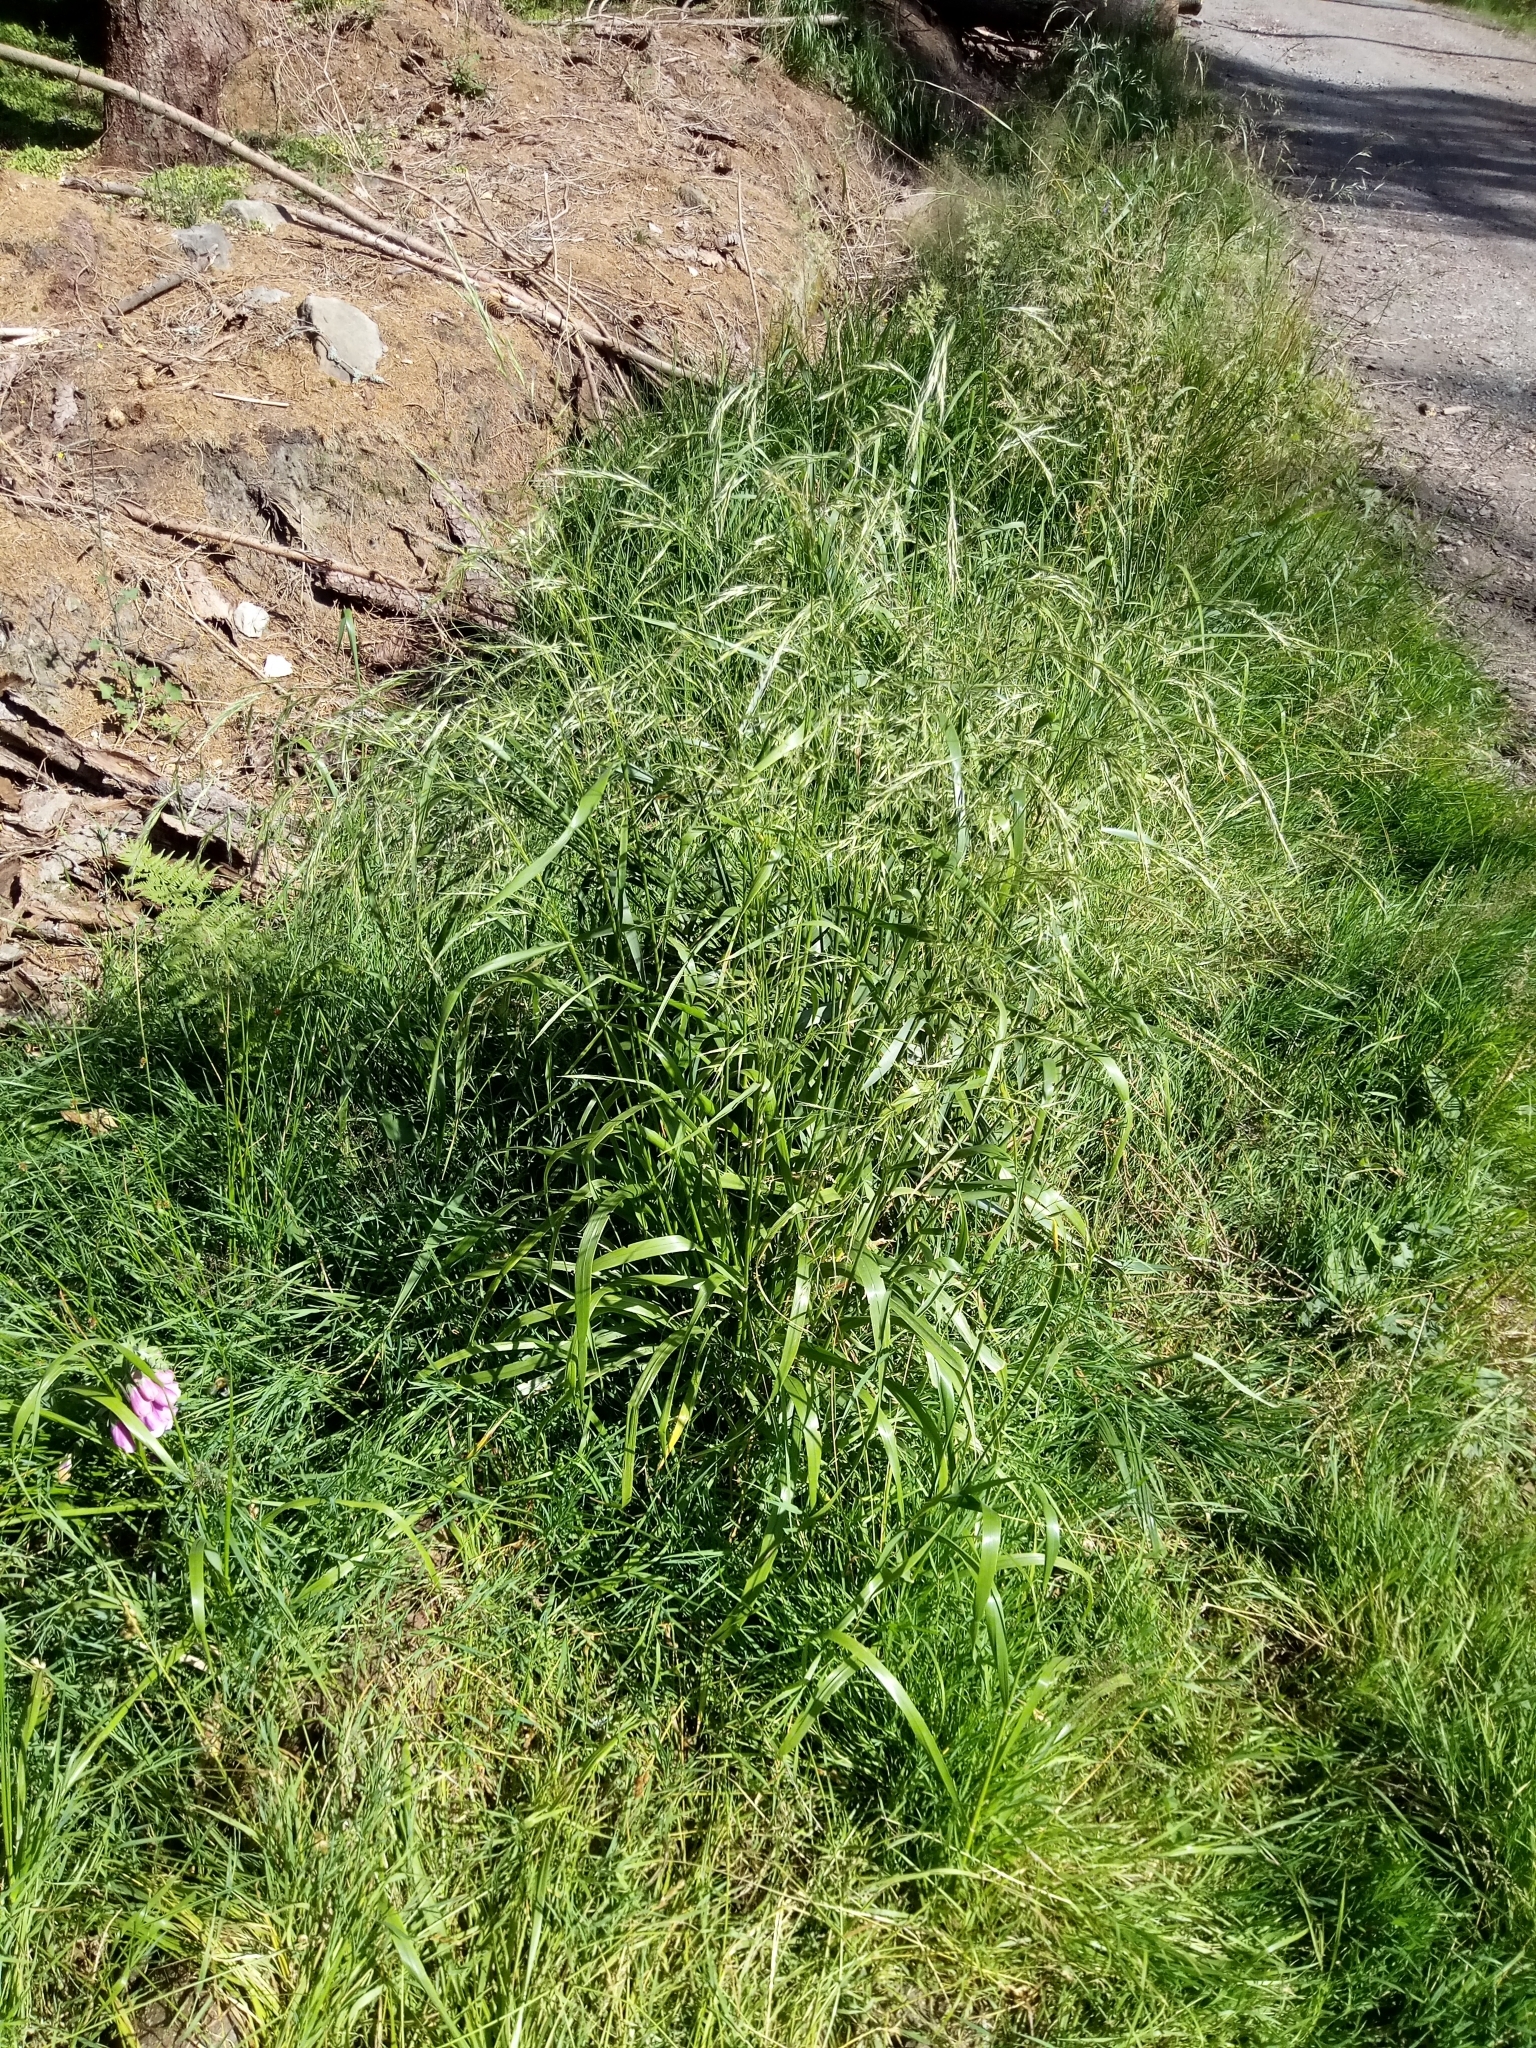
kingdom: Plantae
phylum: Tracheophyta
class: Liliopsida
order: Poales
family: Poaceae
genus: Lolium
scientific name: Lolium giganteum
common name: Giant fescue
